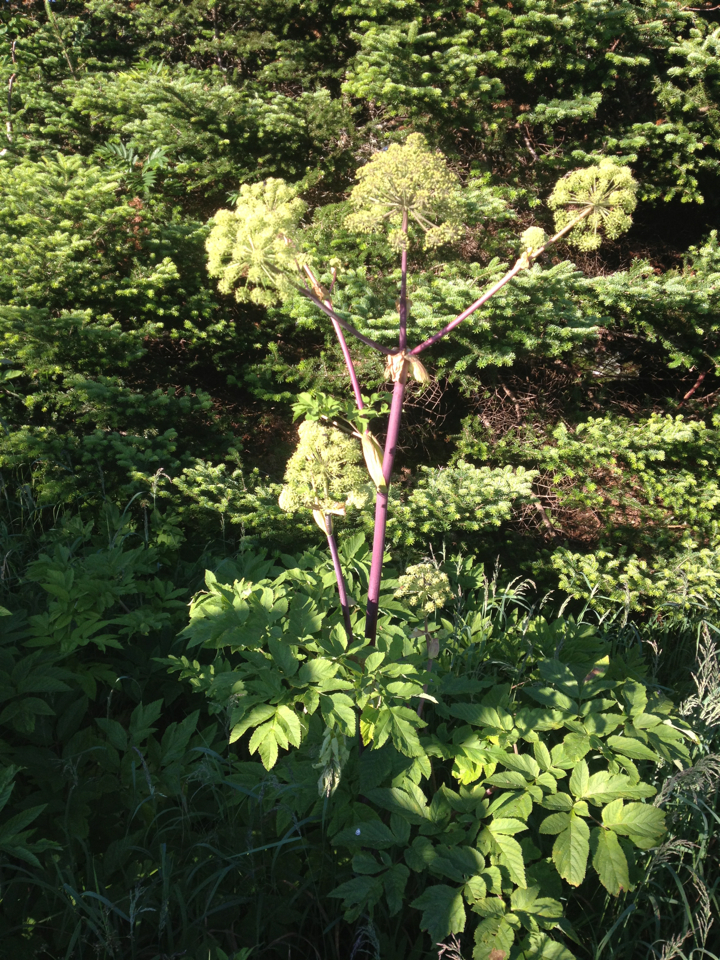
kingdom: Plantae
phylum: Tracheophyta
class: Magnoliopsida
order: Apiales
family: Apiaceae
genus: Angelica
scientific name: Angelica atropurpurea
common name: Great angelica
